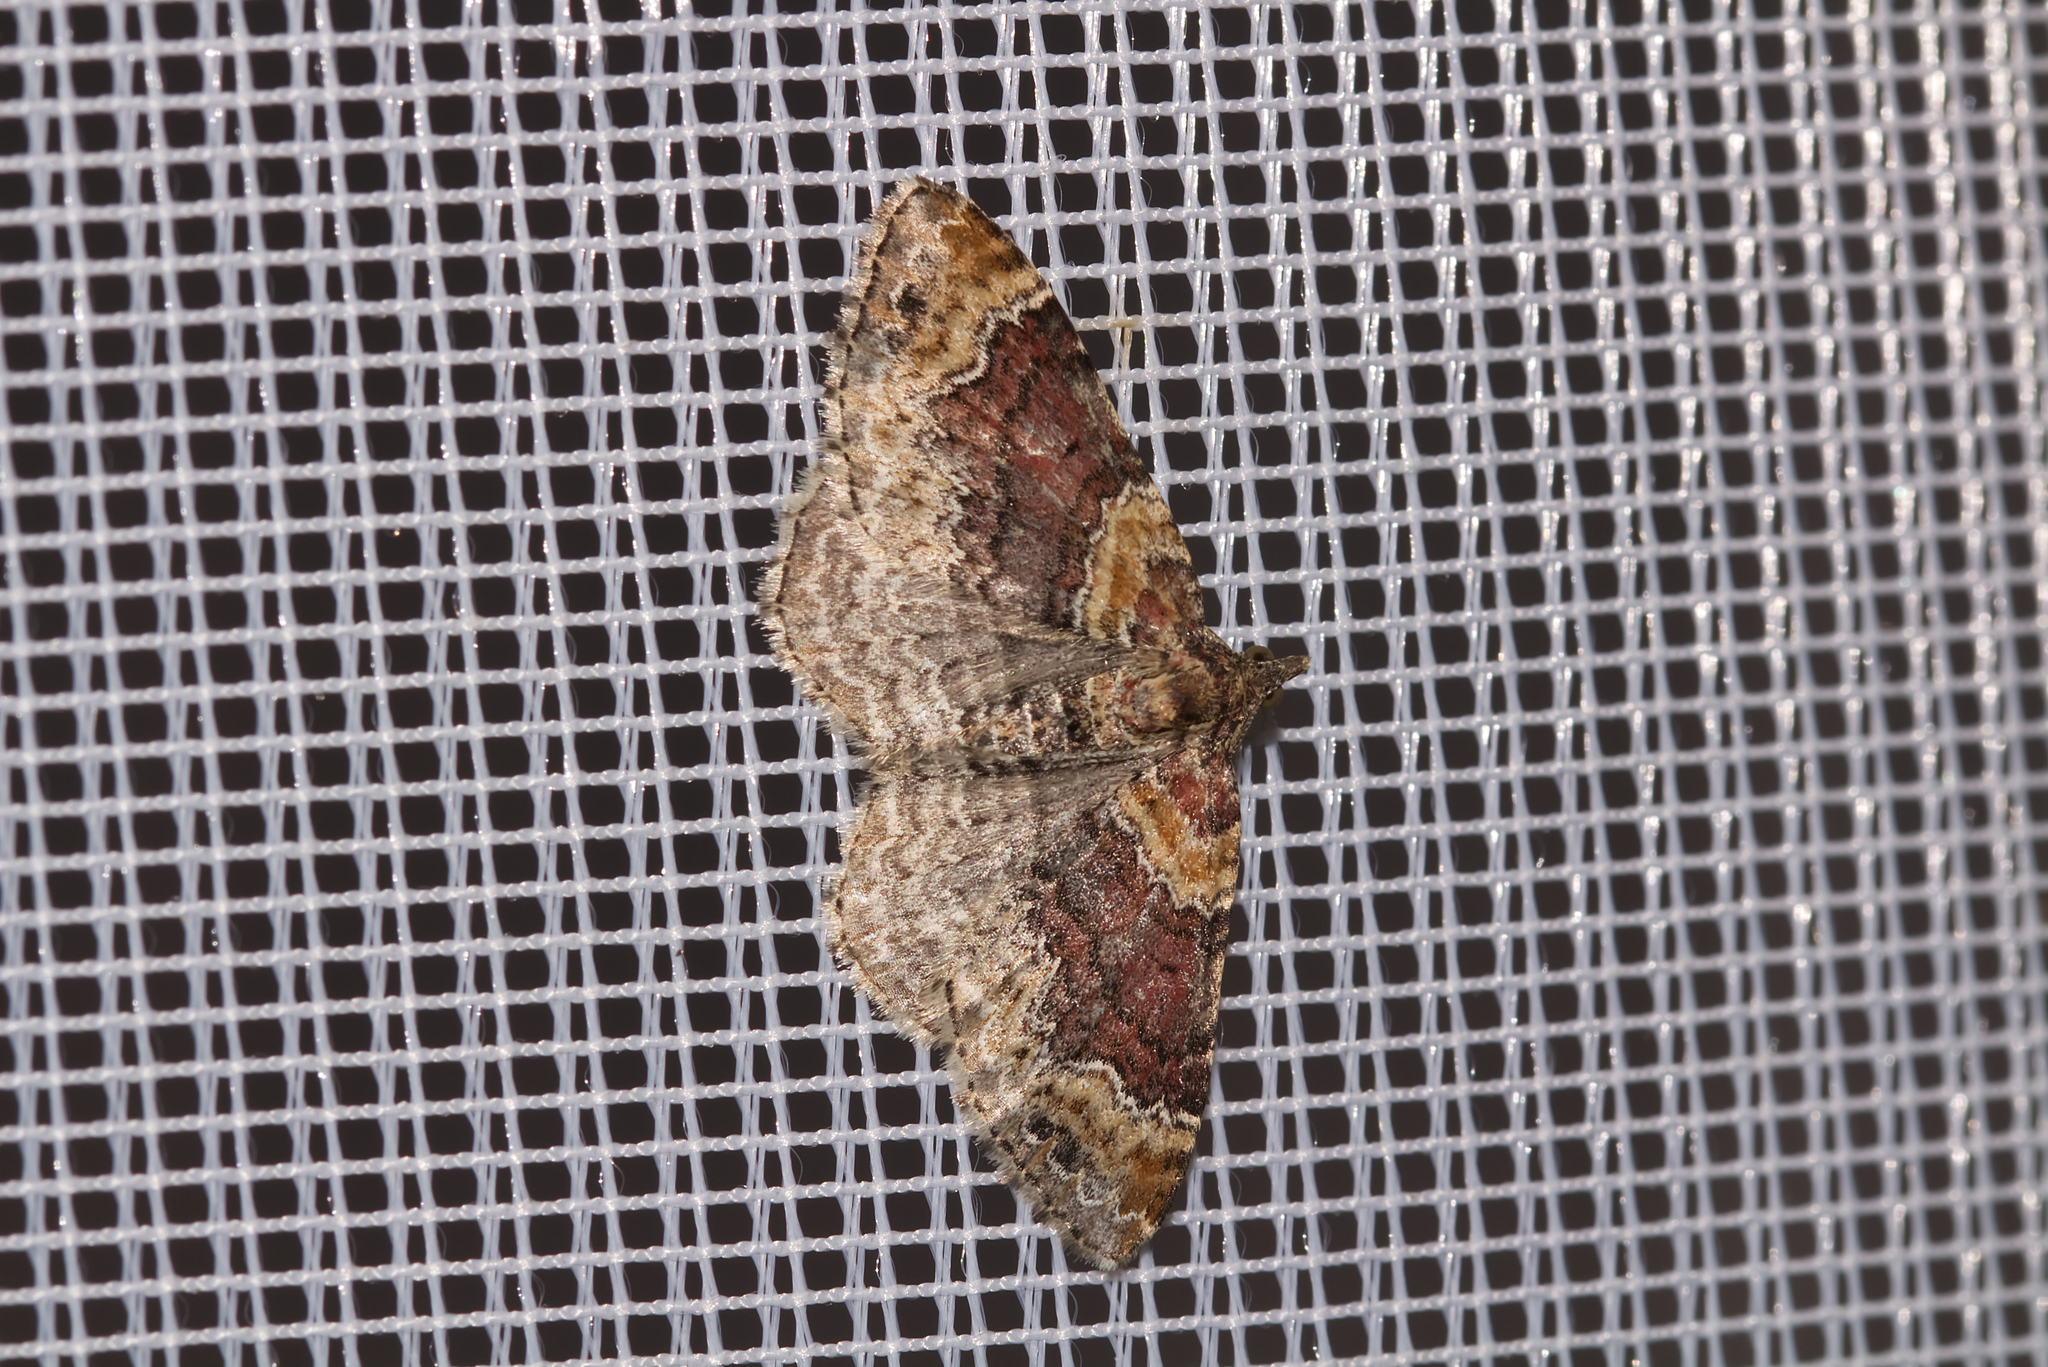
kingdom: Animalia
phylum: Arthropoda
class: Insecta
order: Lepidoptera
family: Geometridae
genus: Xanthorhoe
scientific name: Xanthorhoe spadicearia
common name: Red twin-spot carpet
